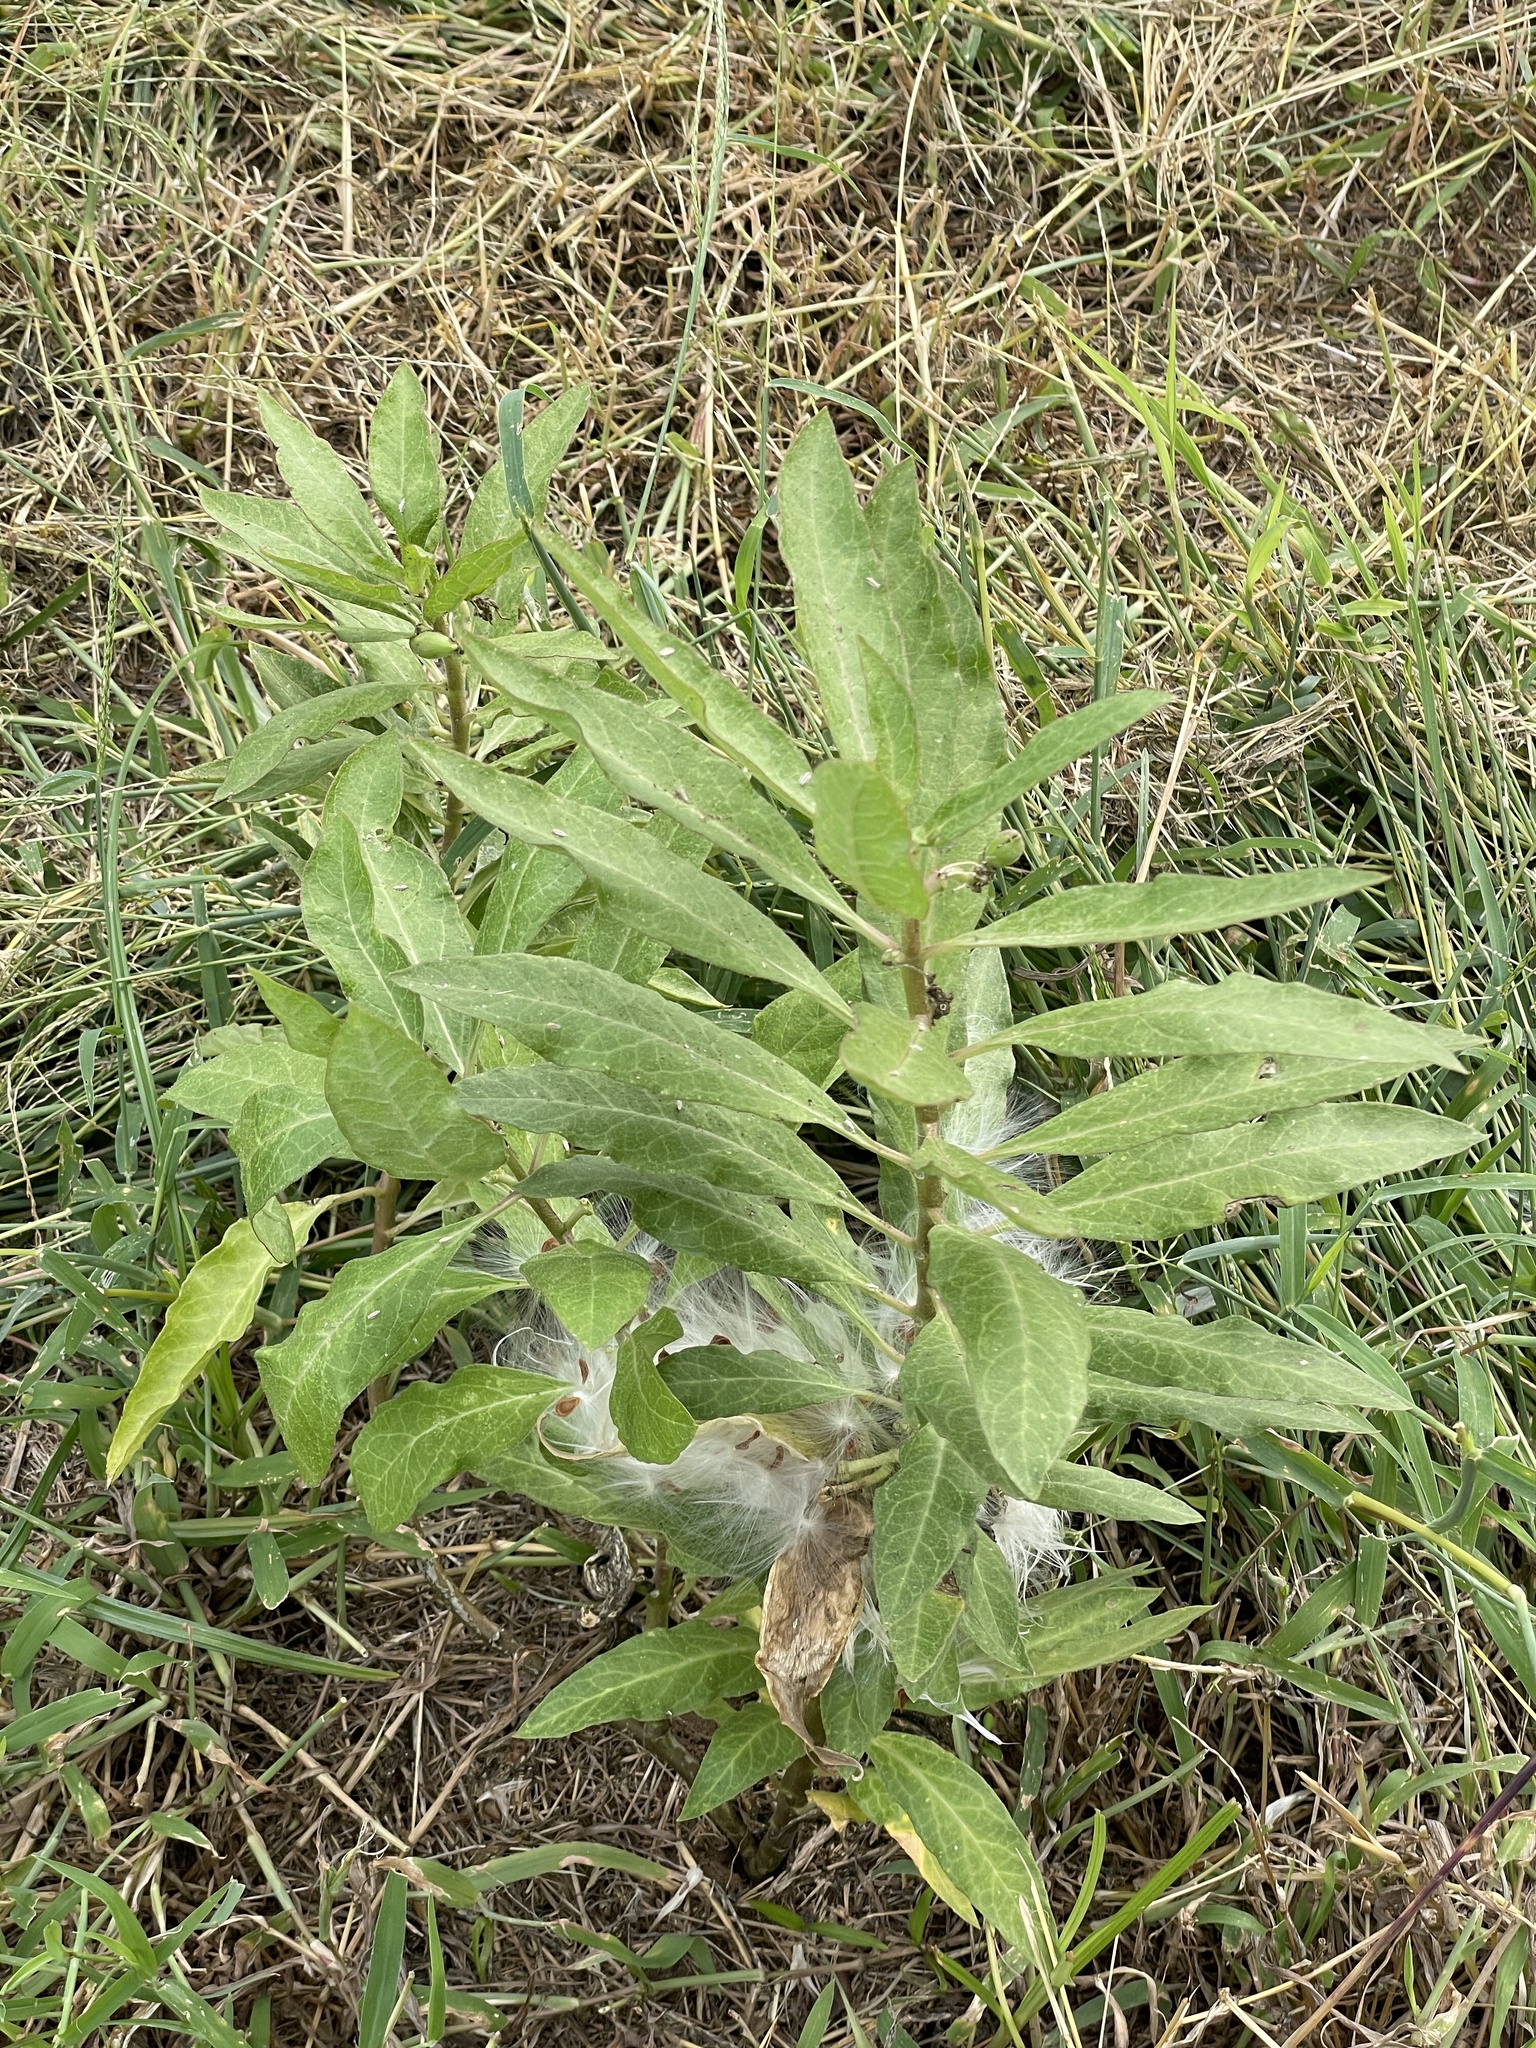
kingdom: Plantae
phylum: Tracheophyta
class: Magnoliopsida
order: Gentianales
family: Apocynaceae
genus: Asclepias
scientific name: Asclepias oenotheroides
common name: Zizotes milkweed
